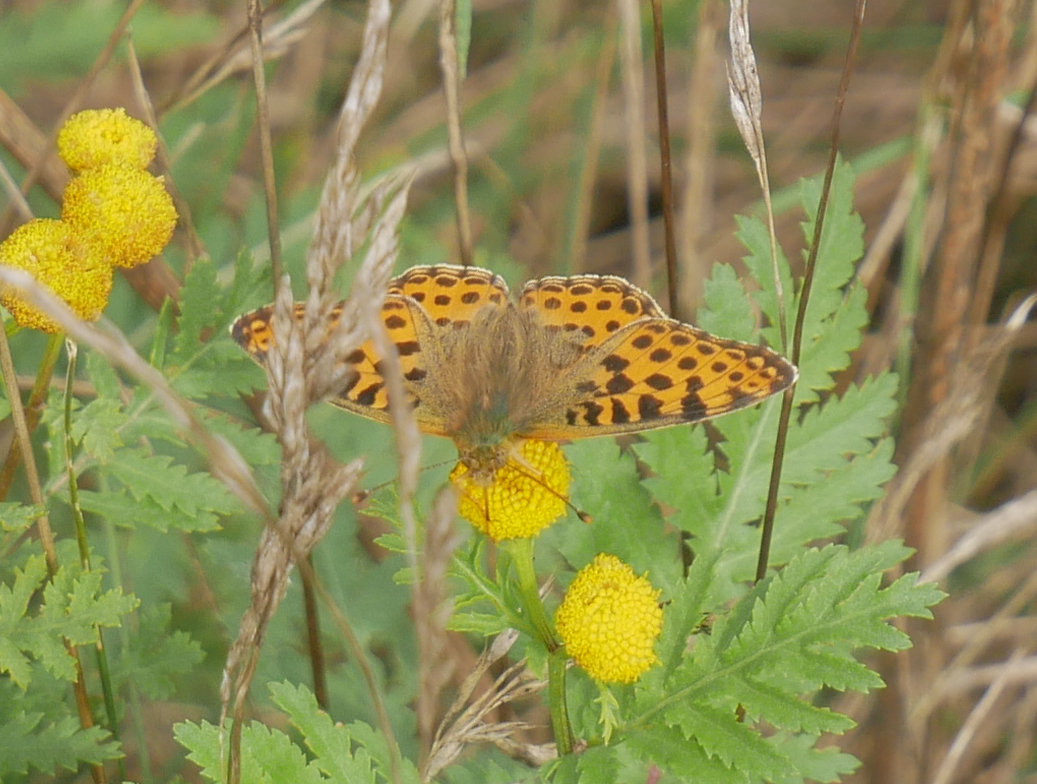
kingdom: Animalia
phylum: Arthropoda
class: Insecta
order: Lepidoptera
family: Nymphalidae
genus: Issoria
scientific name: Issoria lathonia
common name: Queen of spain fritillary
